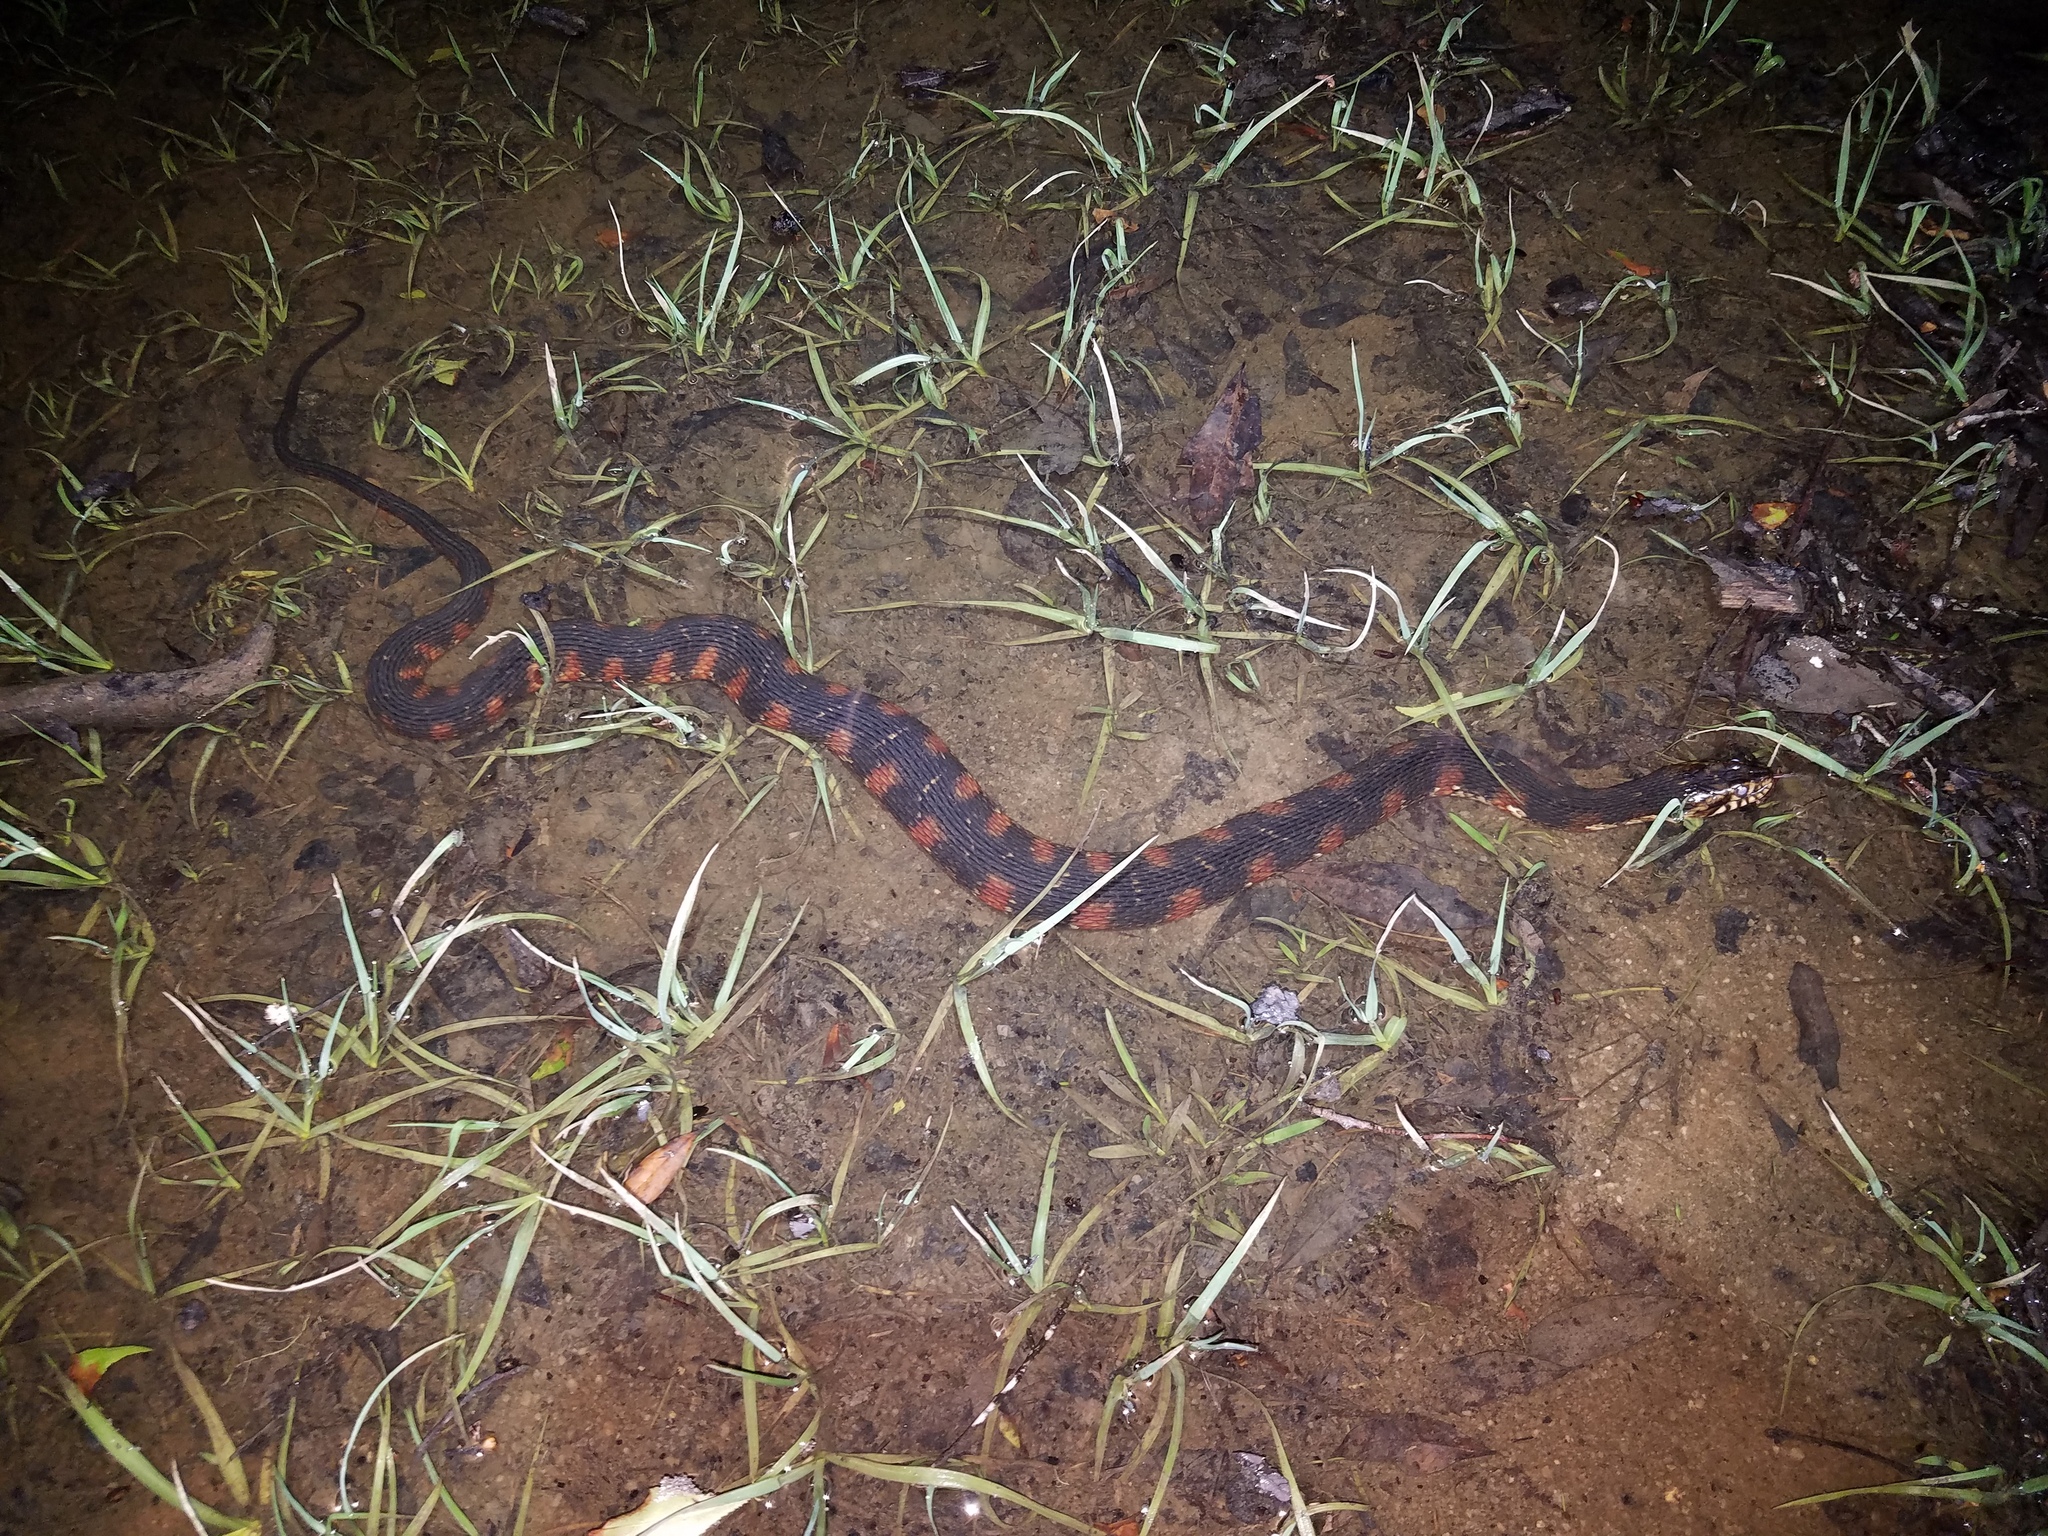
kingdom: Animalia
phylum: Chordata
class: Squamata
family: Colubridae
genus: Nerodia
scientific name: Nerodia fasciata
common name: Southern water snake
